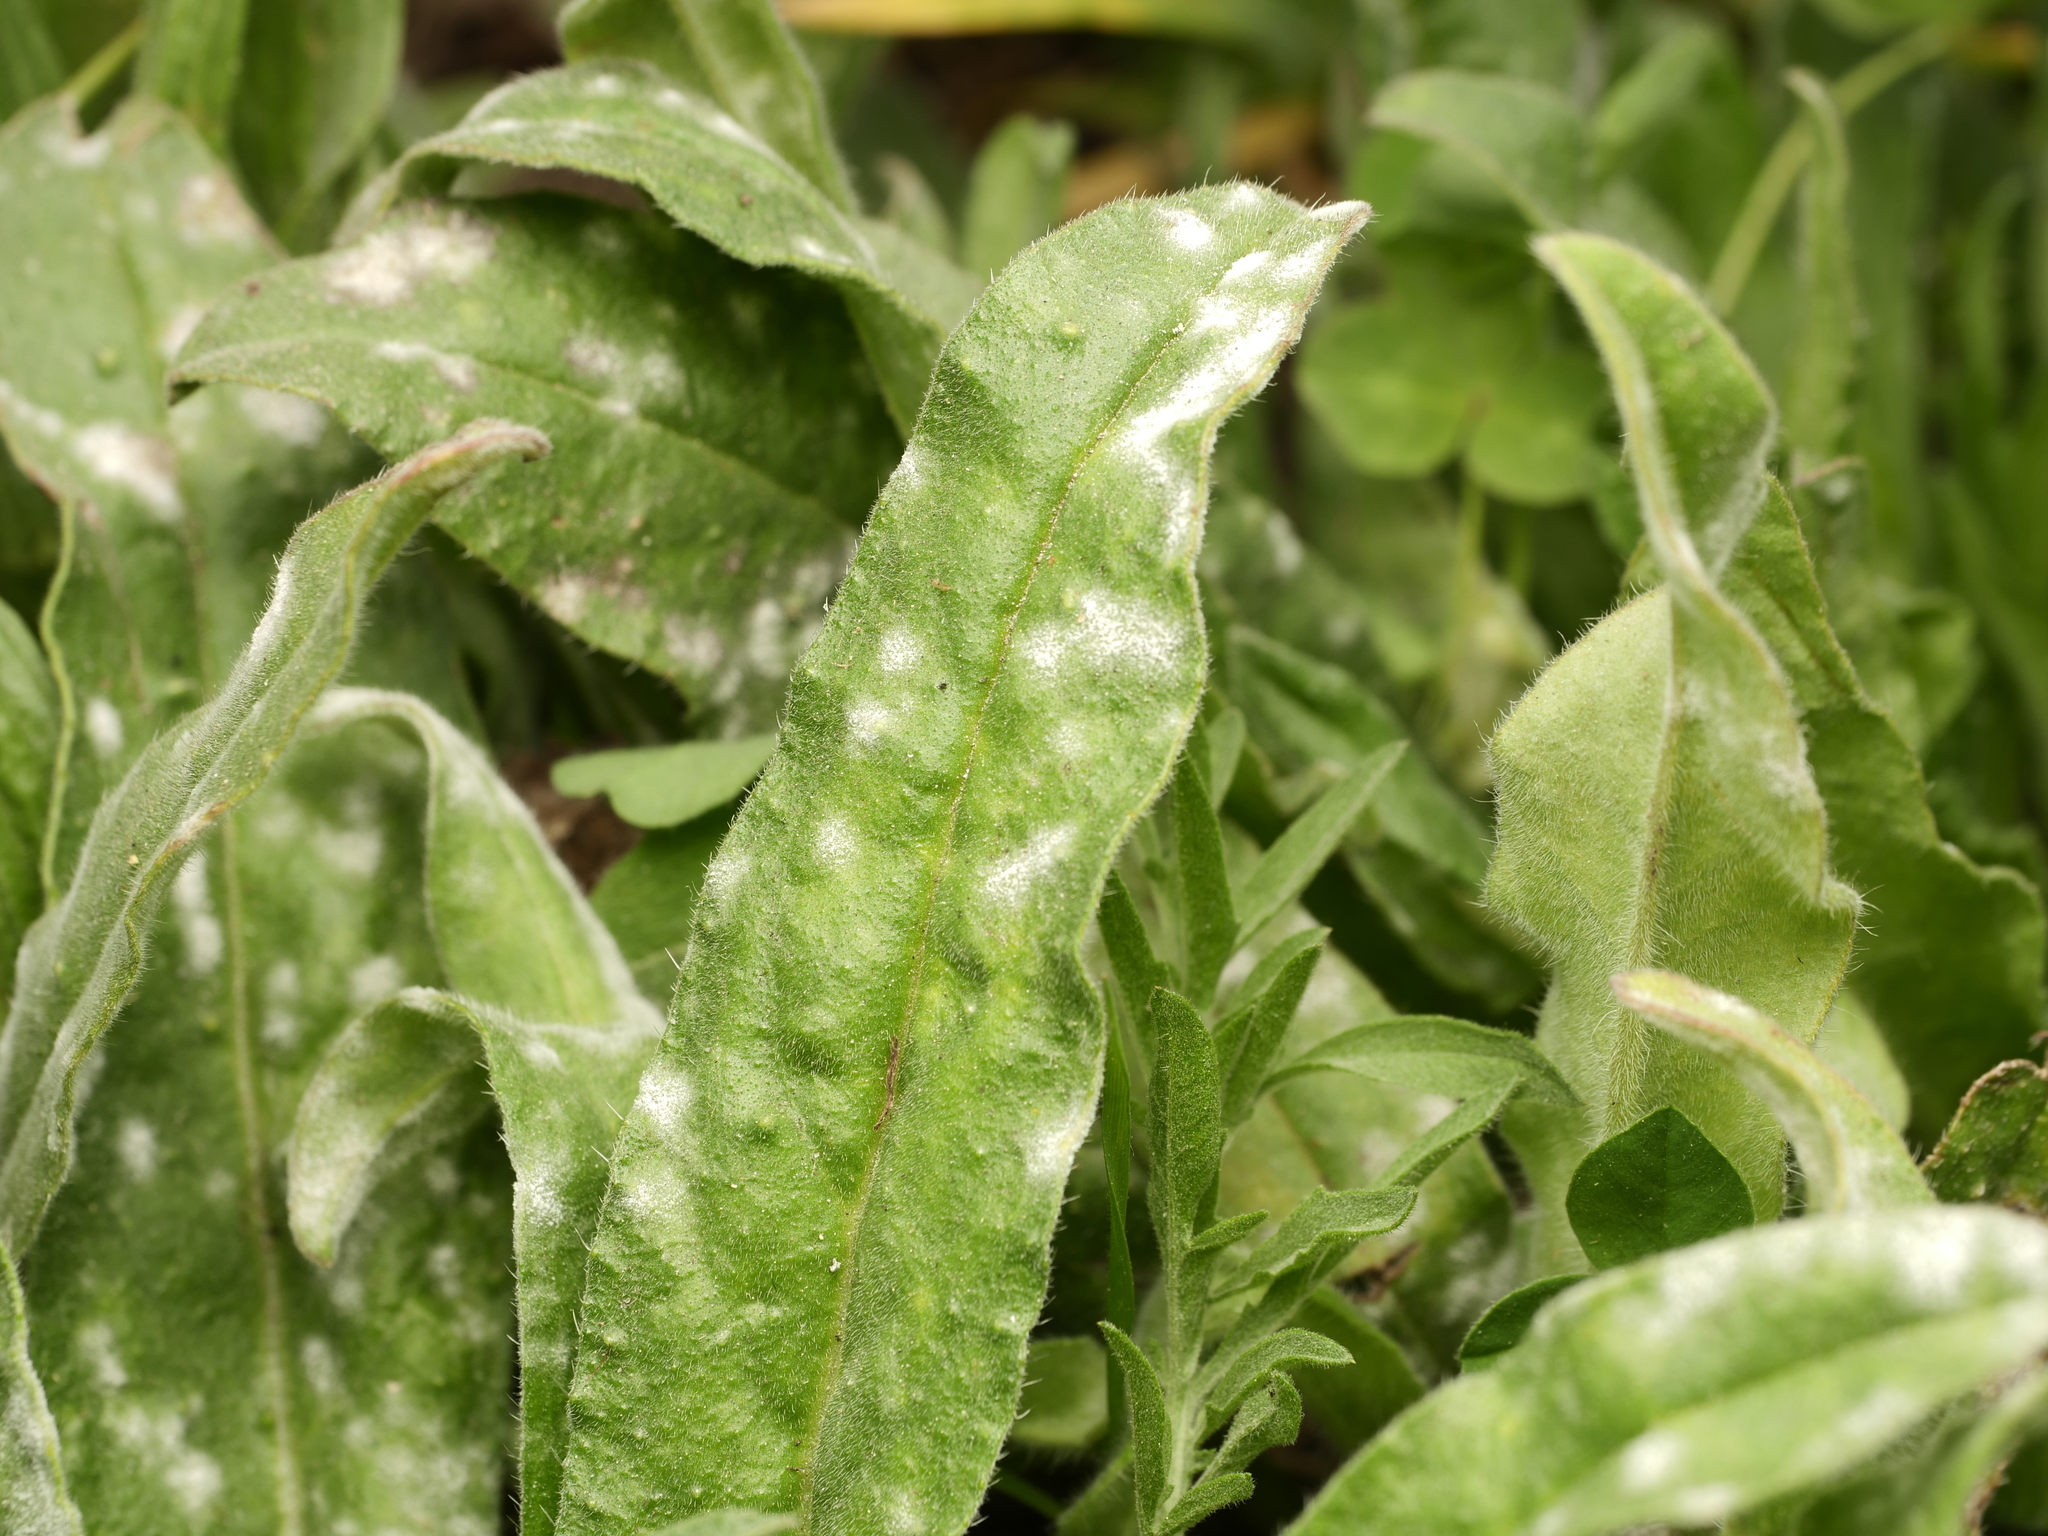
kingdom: Fungi
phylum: Ascomycota
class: Leotiomycetes
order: Helotiales
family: Erysiphaceae
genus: Golovinomyces
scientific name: Golovinomyces asperifolii
